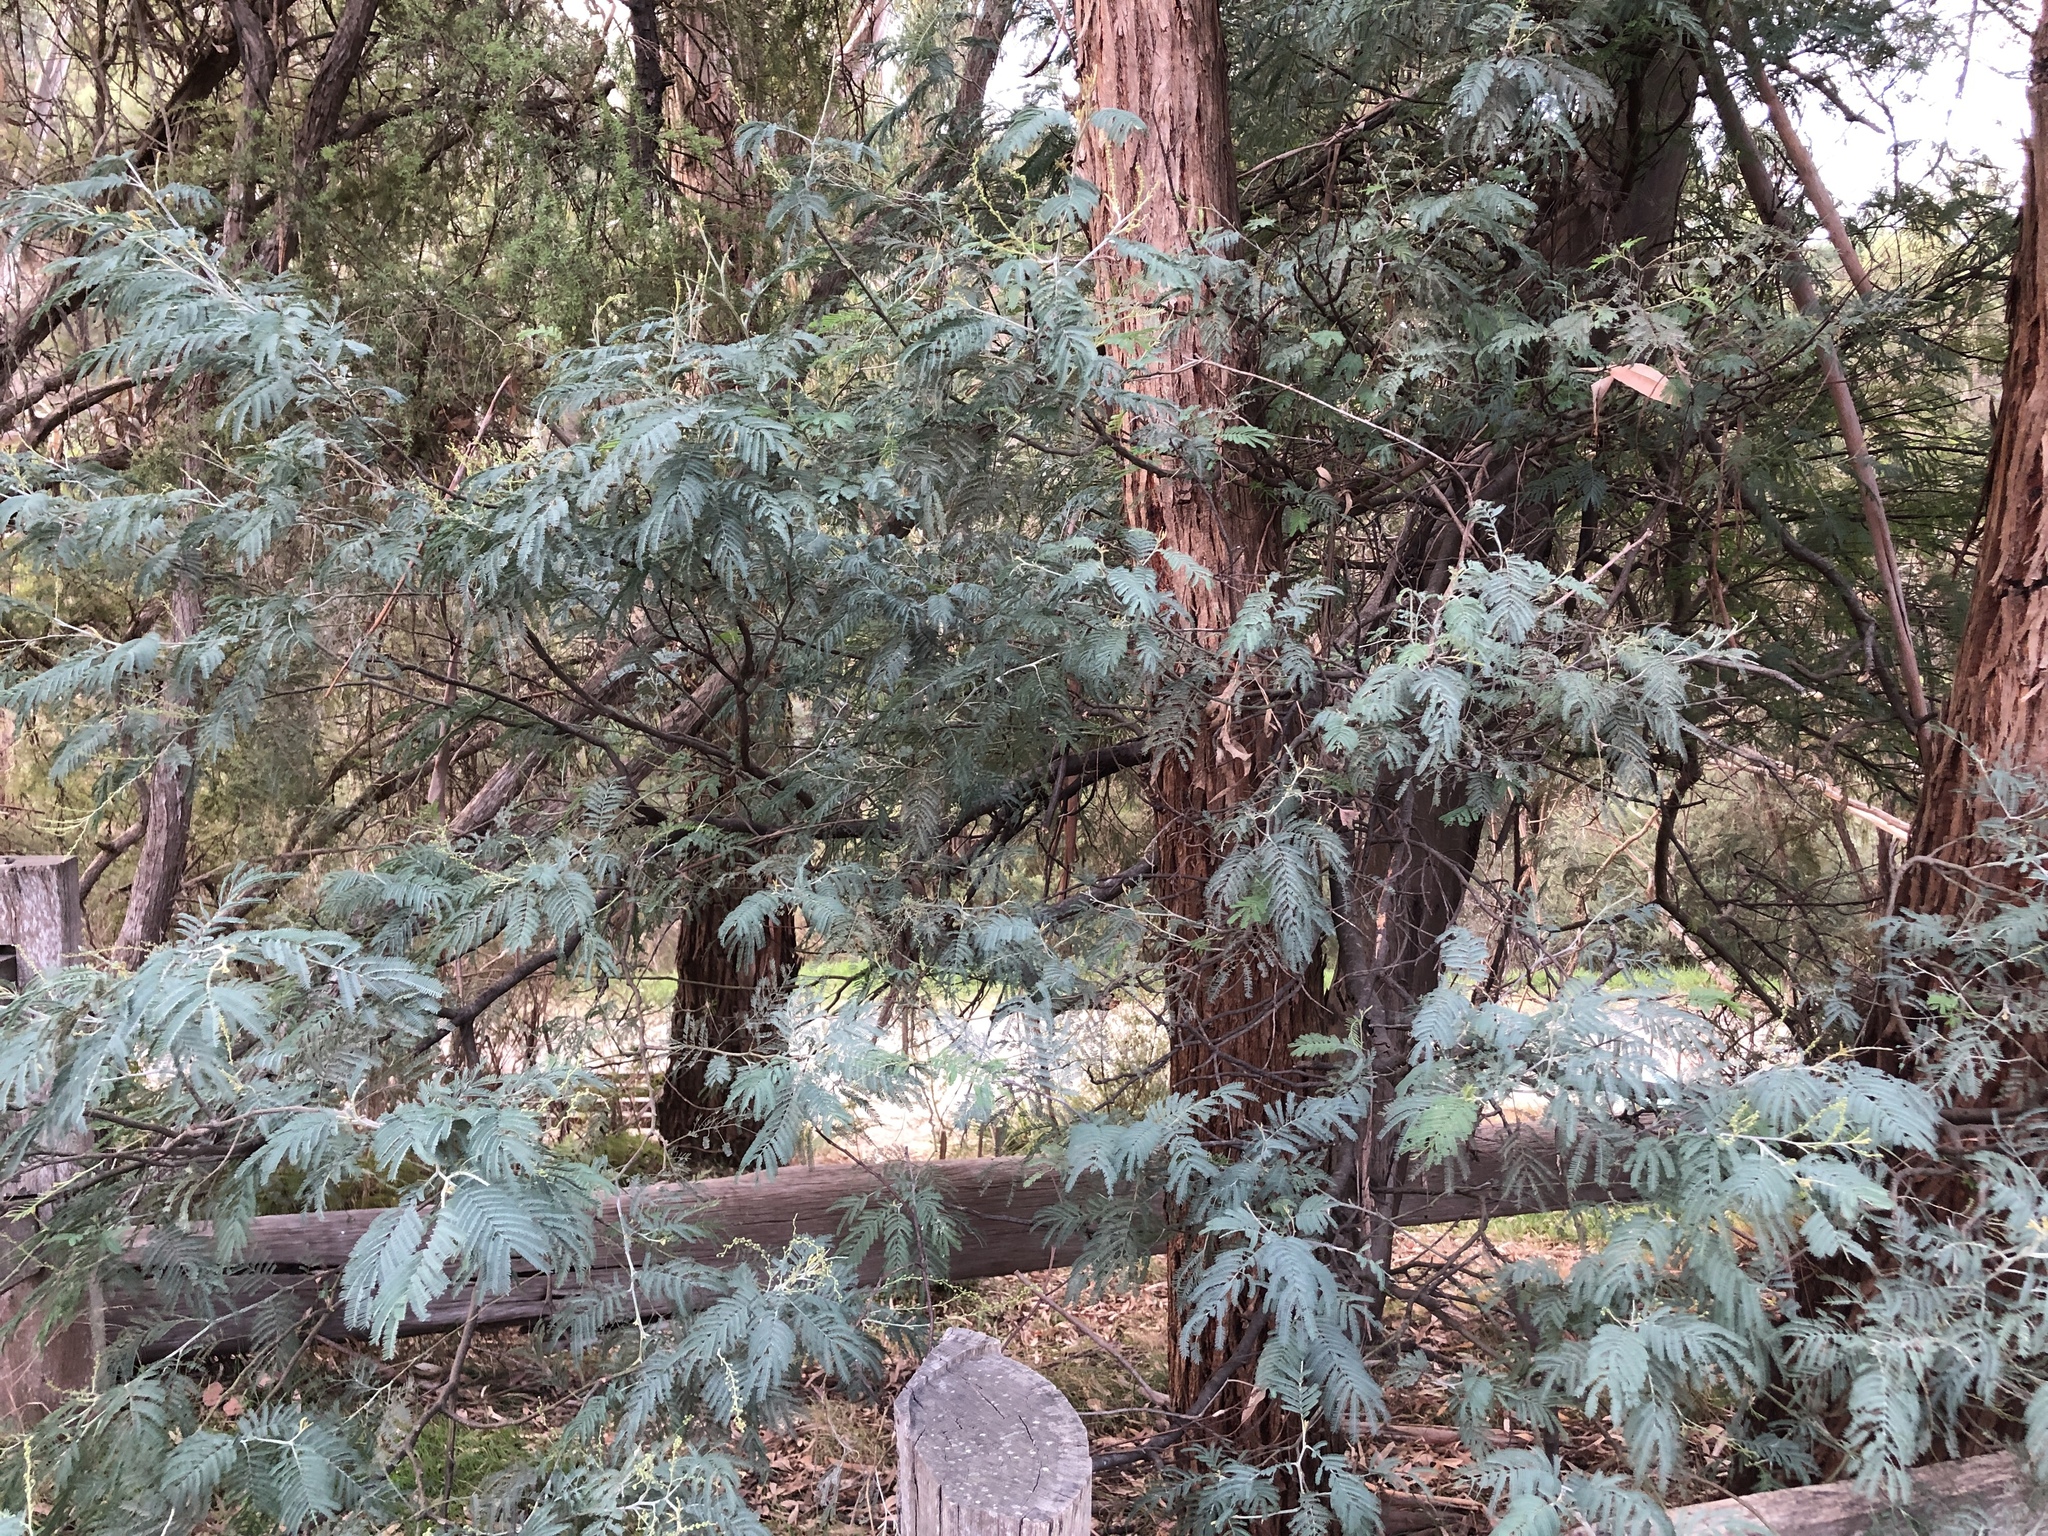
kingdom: Plantae
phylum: Tracheophyta
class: Magnoliopsida
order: Fabales
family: Fabaceae
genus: Acacia
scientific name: Acacia dealbata
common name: Silver wattle
